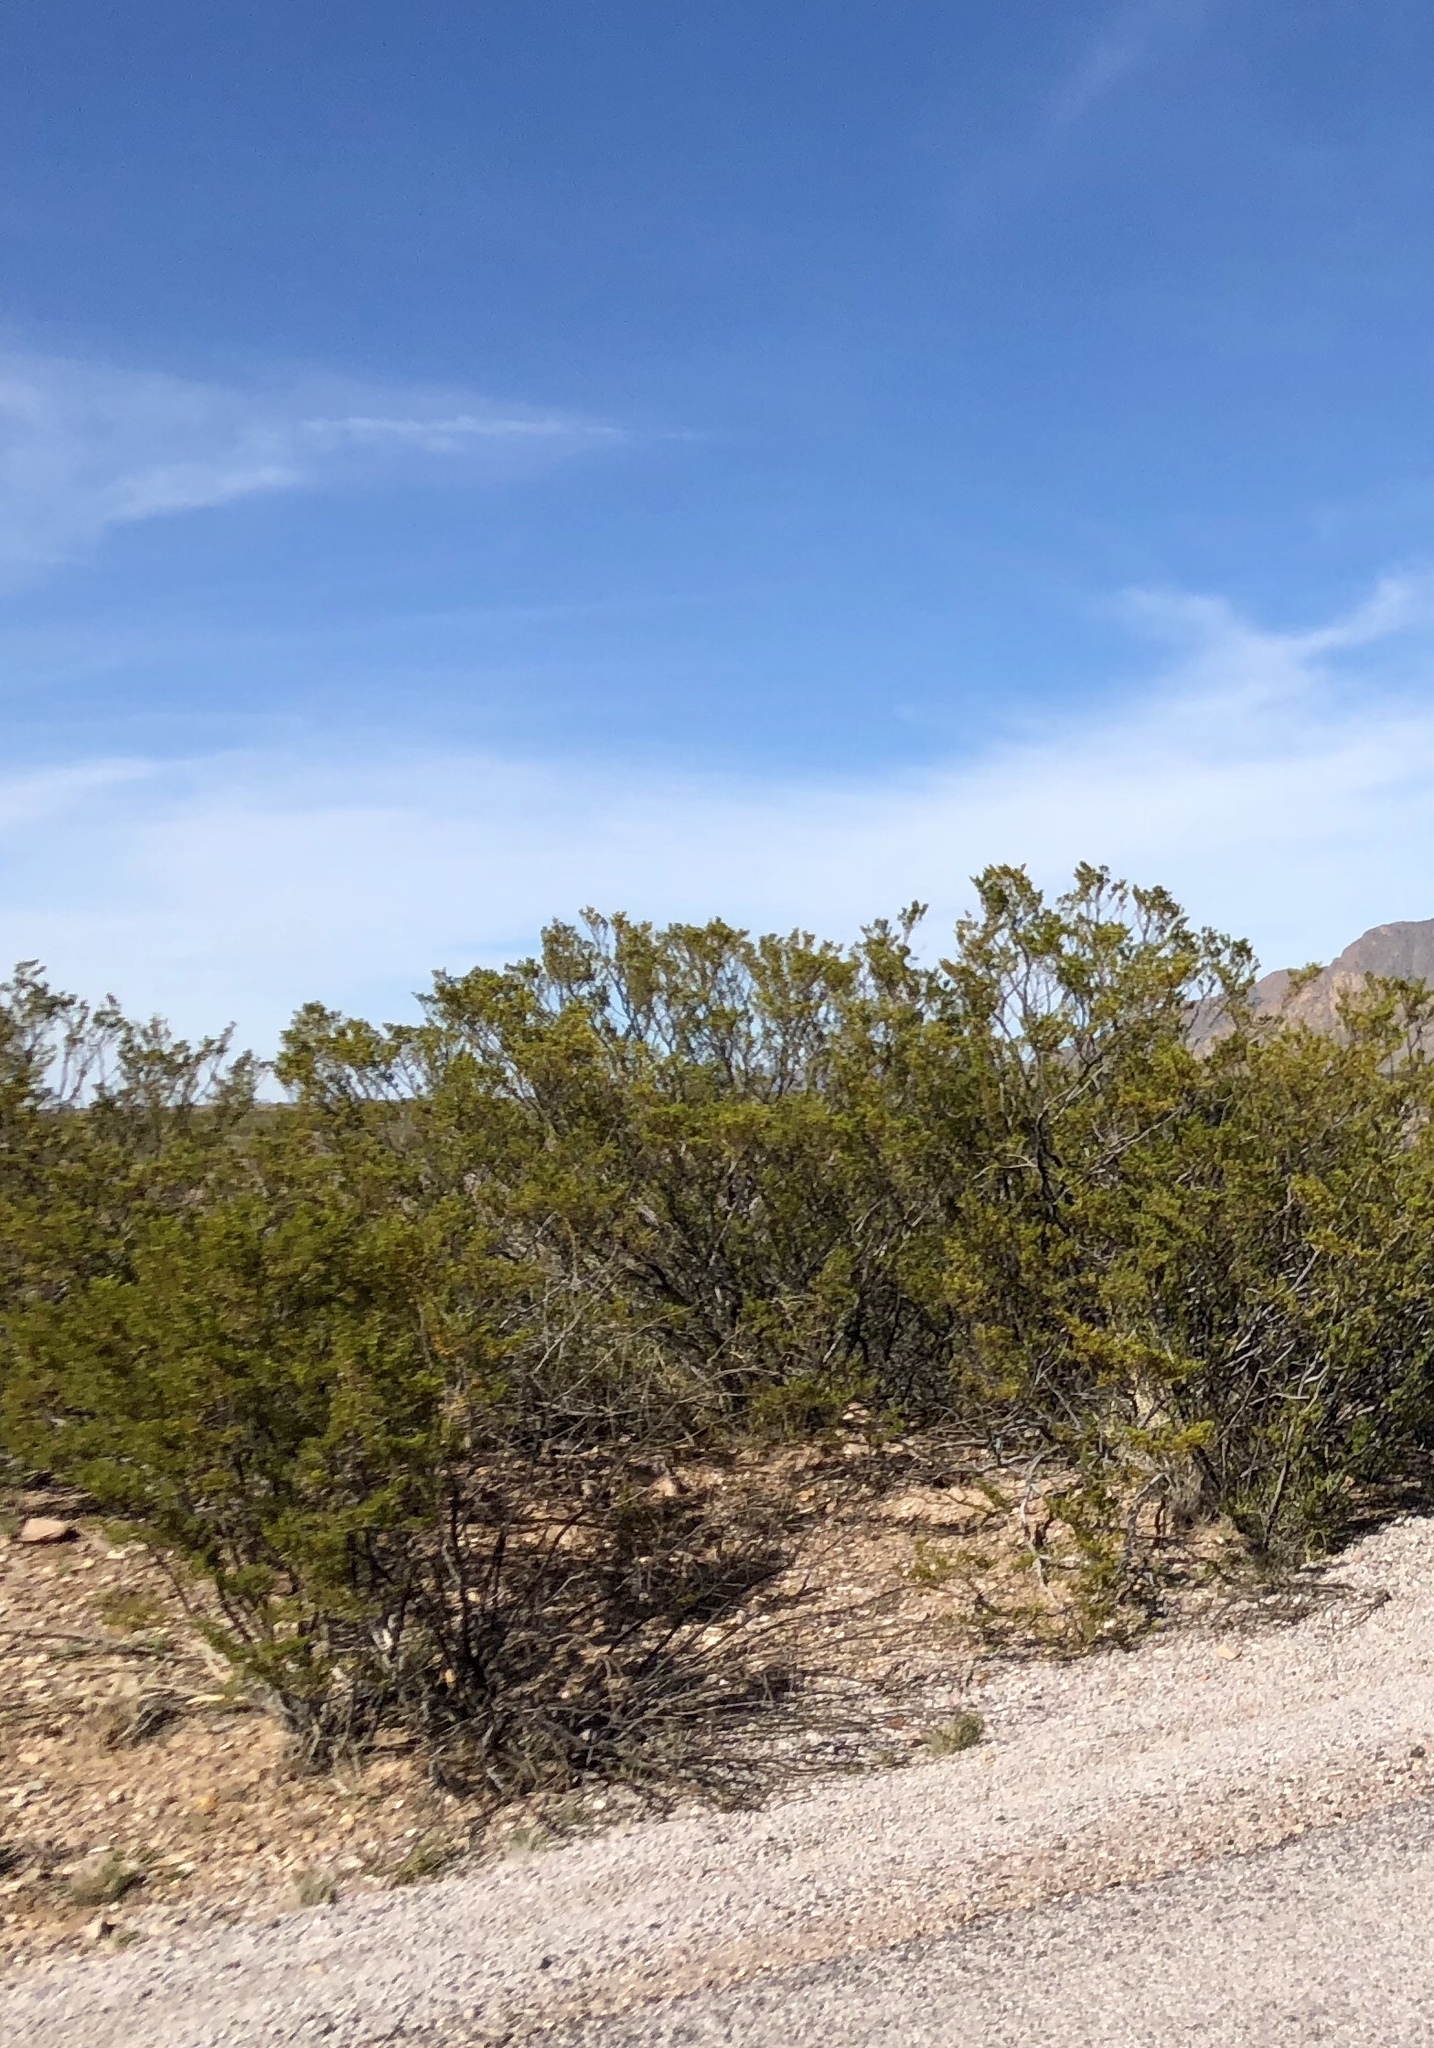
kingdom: Plantae
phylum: Tracheophyta
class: Magnoliopsida
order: Zygophyllales
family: Zygophyllaceae
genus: Larrea
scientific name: Larrea tridentata
